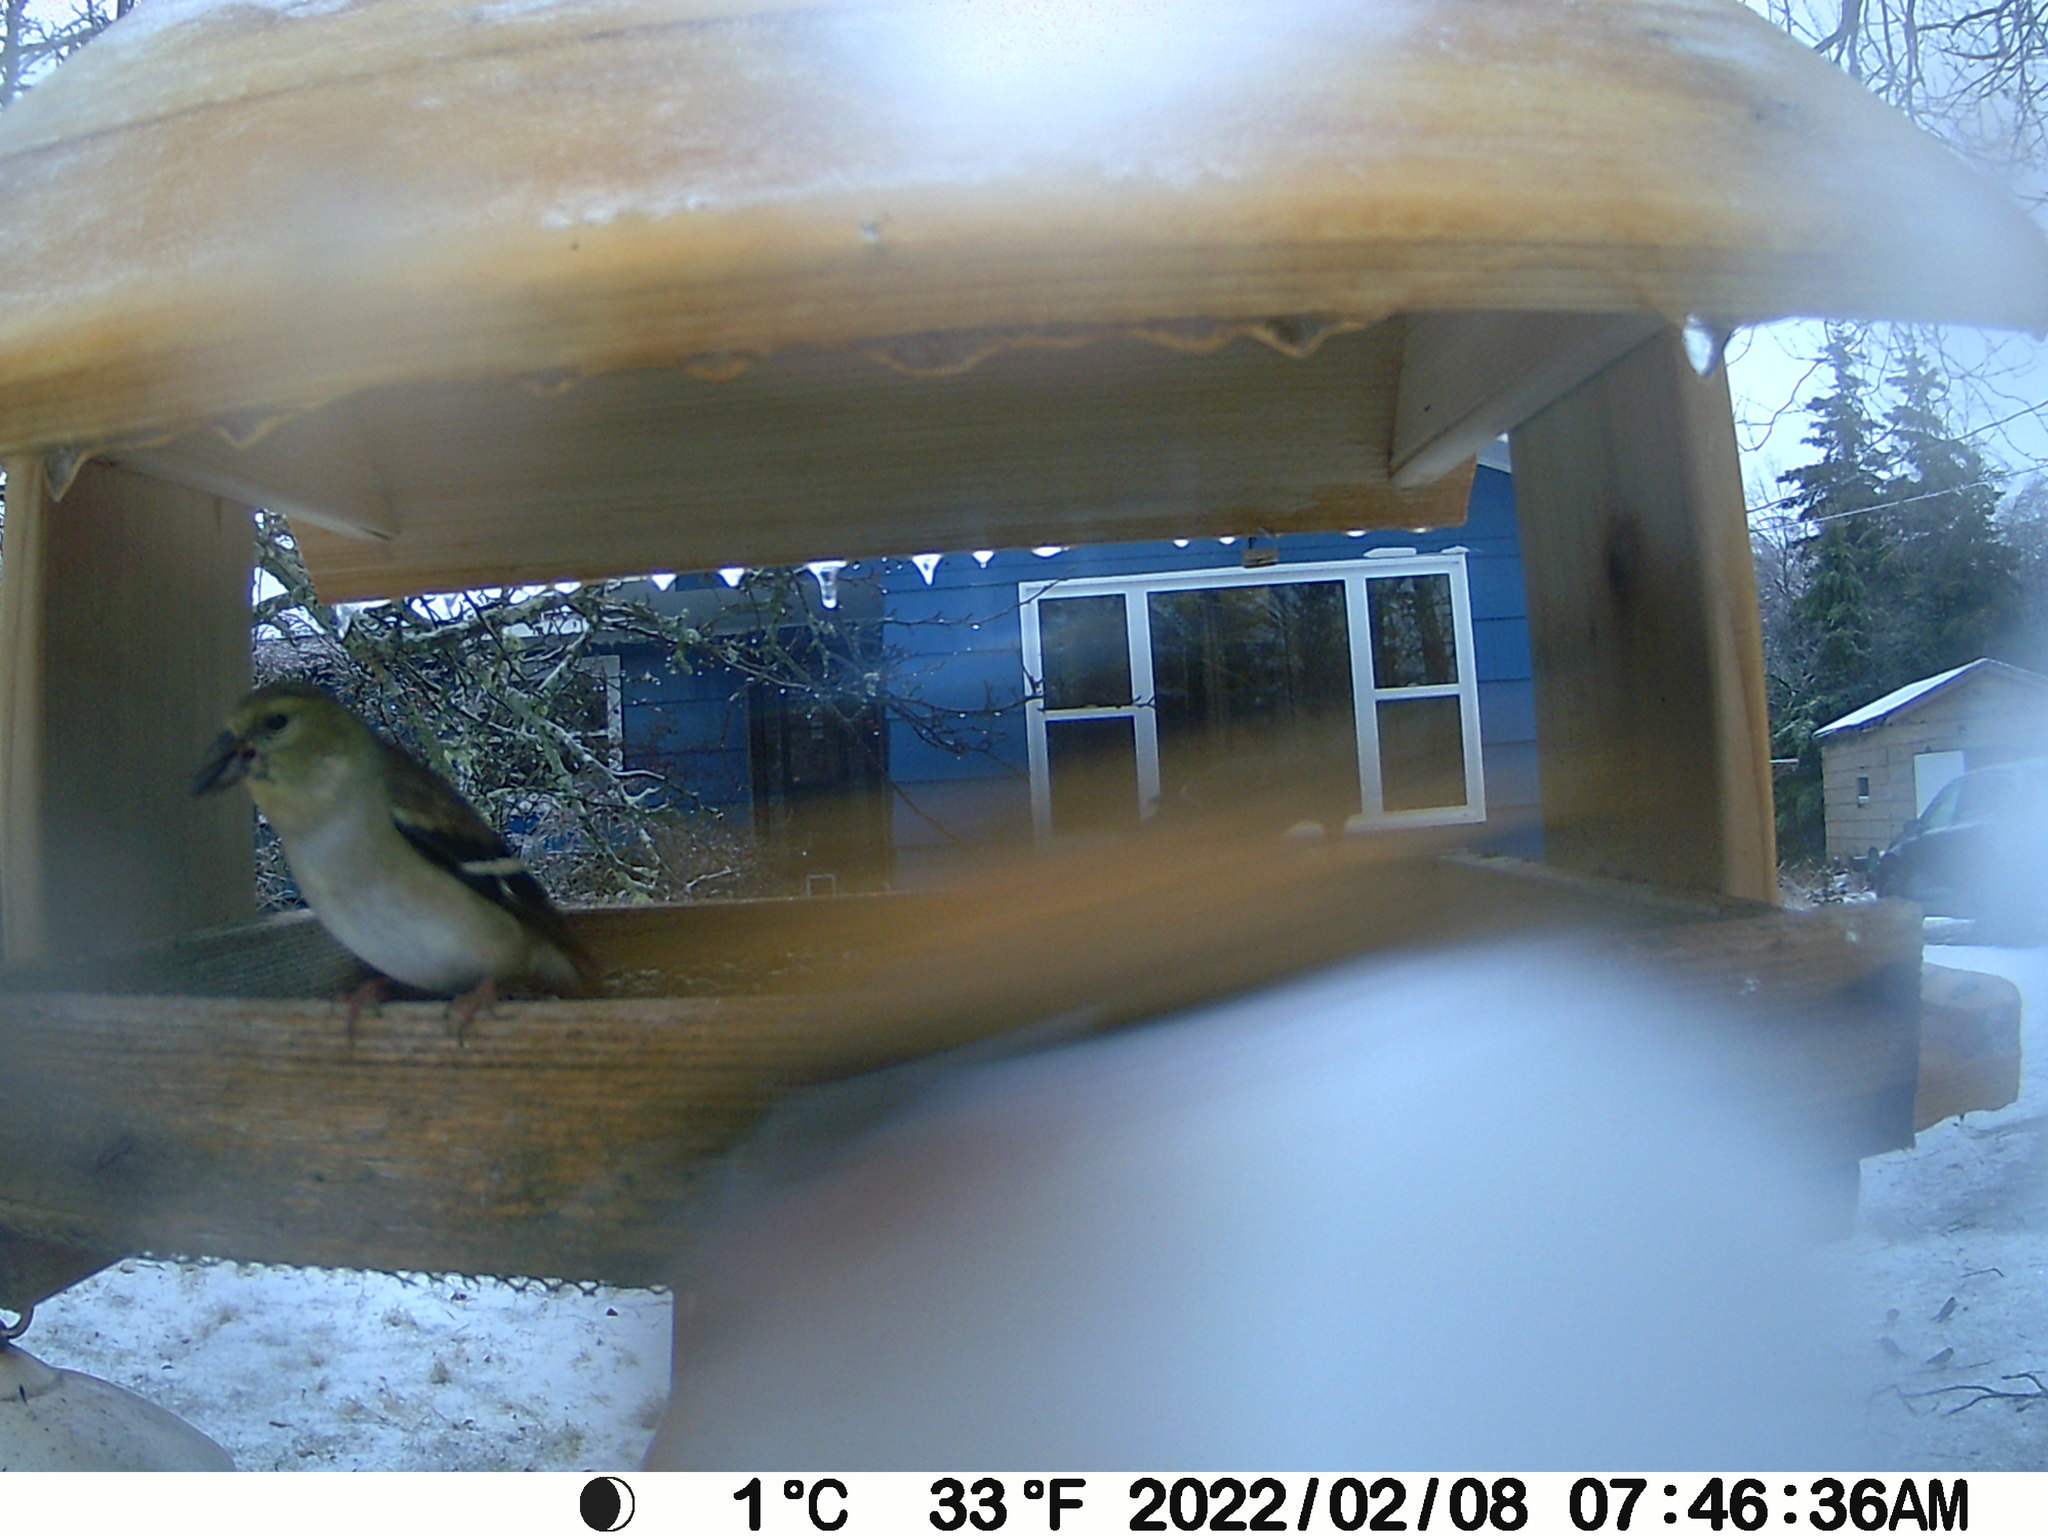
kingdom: Animalia
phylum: Chordata
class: Aves
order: Passeriformes
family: Fringillidae
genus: Spinus
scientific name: Spinus tristis
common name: American goldfinch
